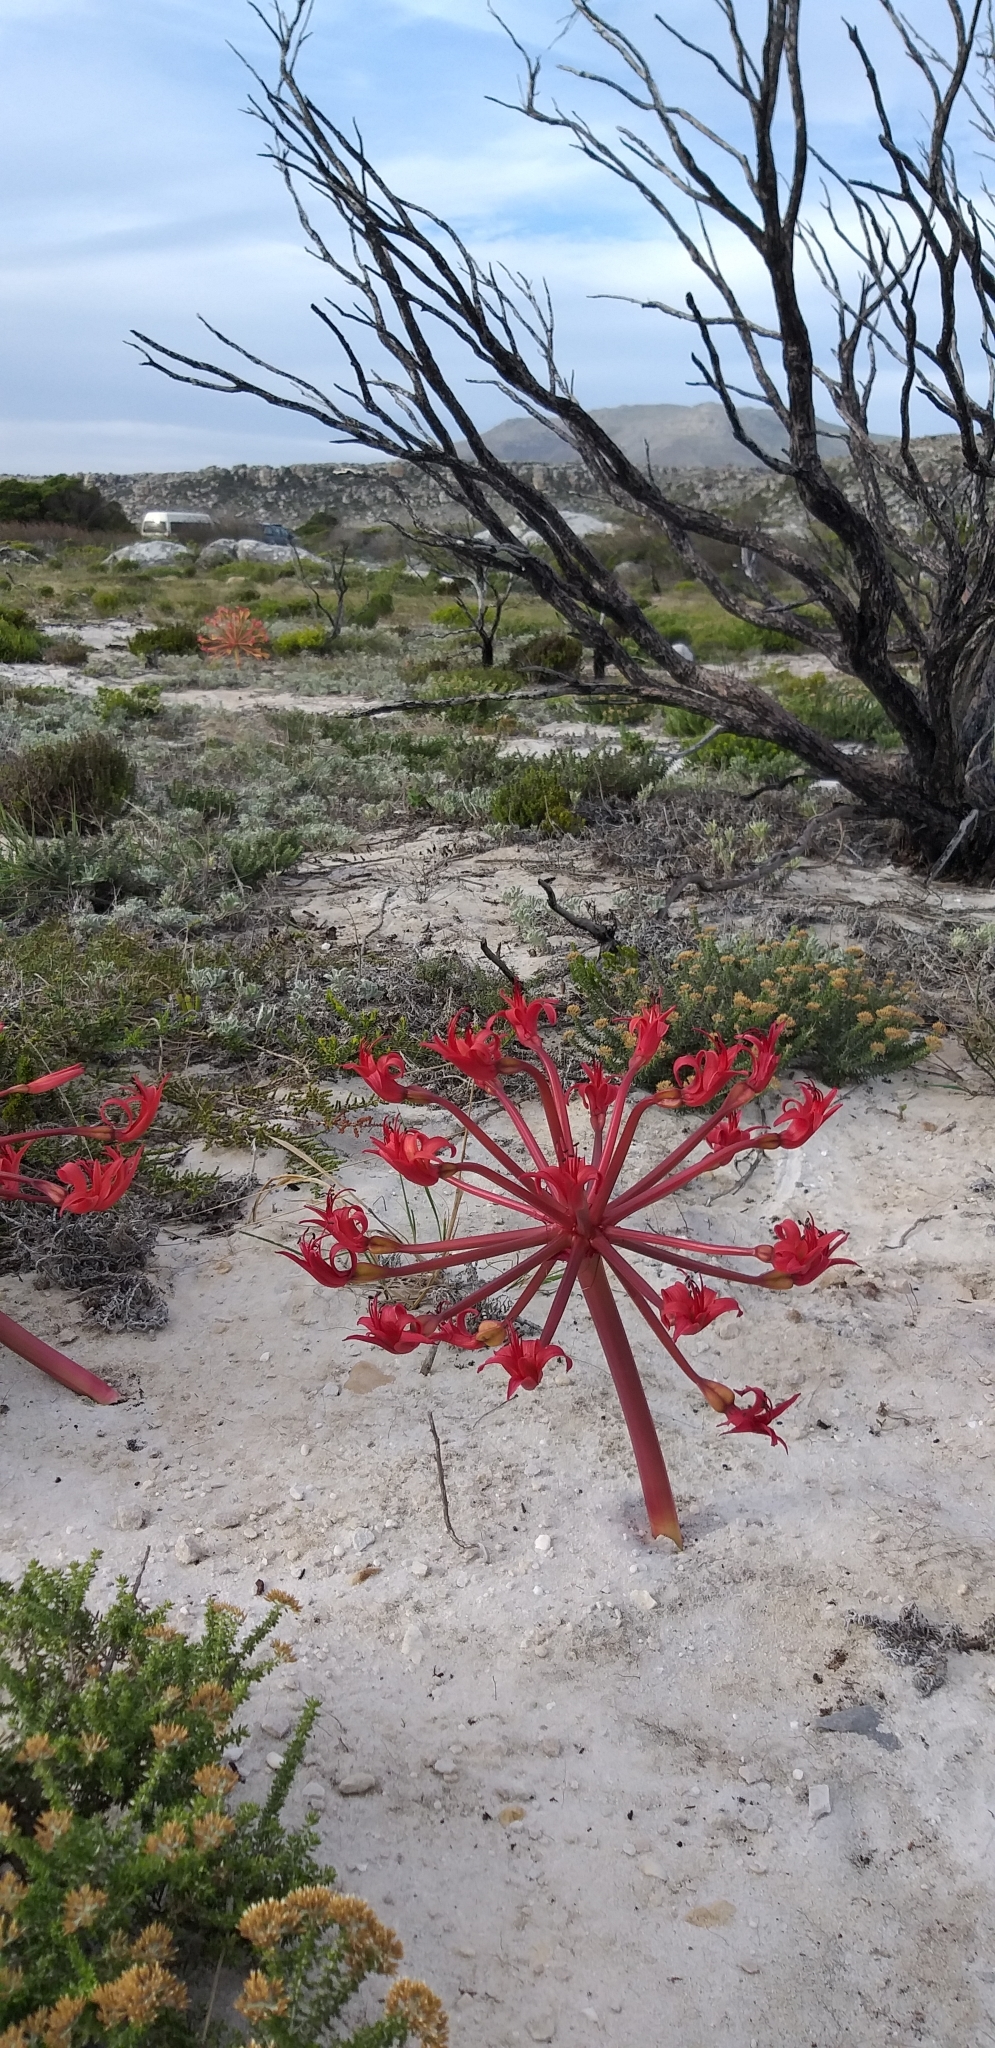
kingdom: Plantae
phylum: Tracheophyta
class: Liliopsida
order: Asparagales
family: Amaryllidaceae
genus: Brunsvigia
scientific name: Brunsvigia orientalis
